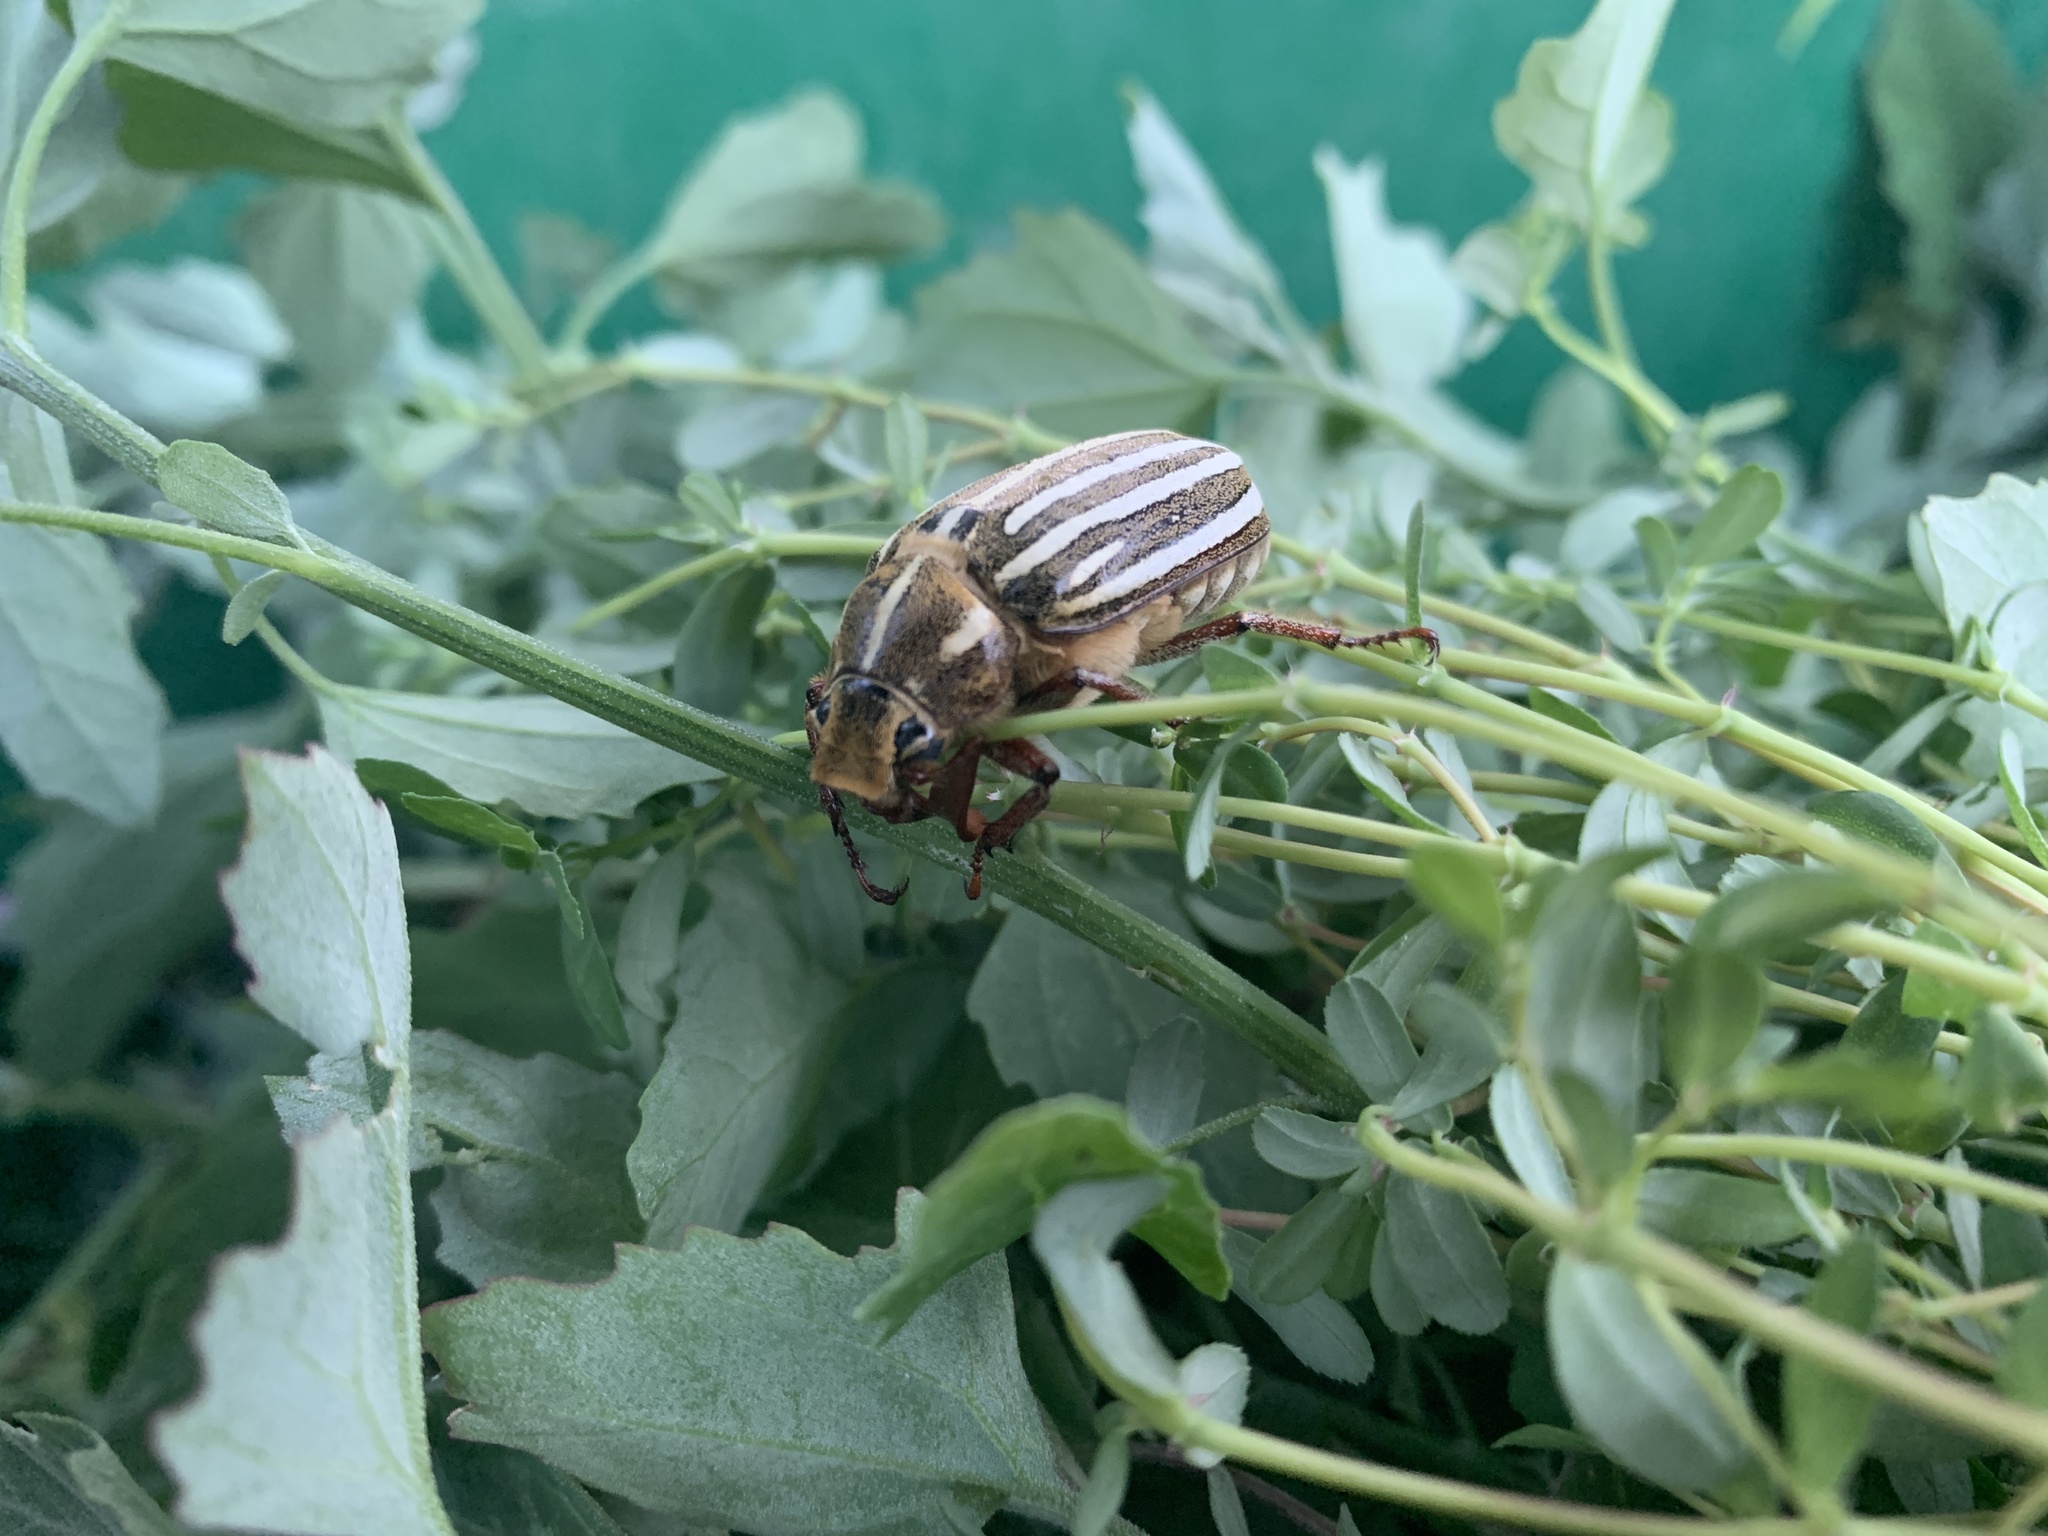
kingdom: Animalia
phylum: Arthropoda
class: Insecta
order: Coleoptera
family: Scarabaeidae
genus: Polyphylla
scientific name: Polyphylla decemlineata
